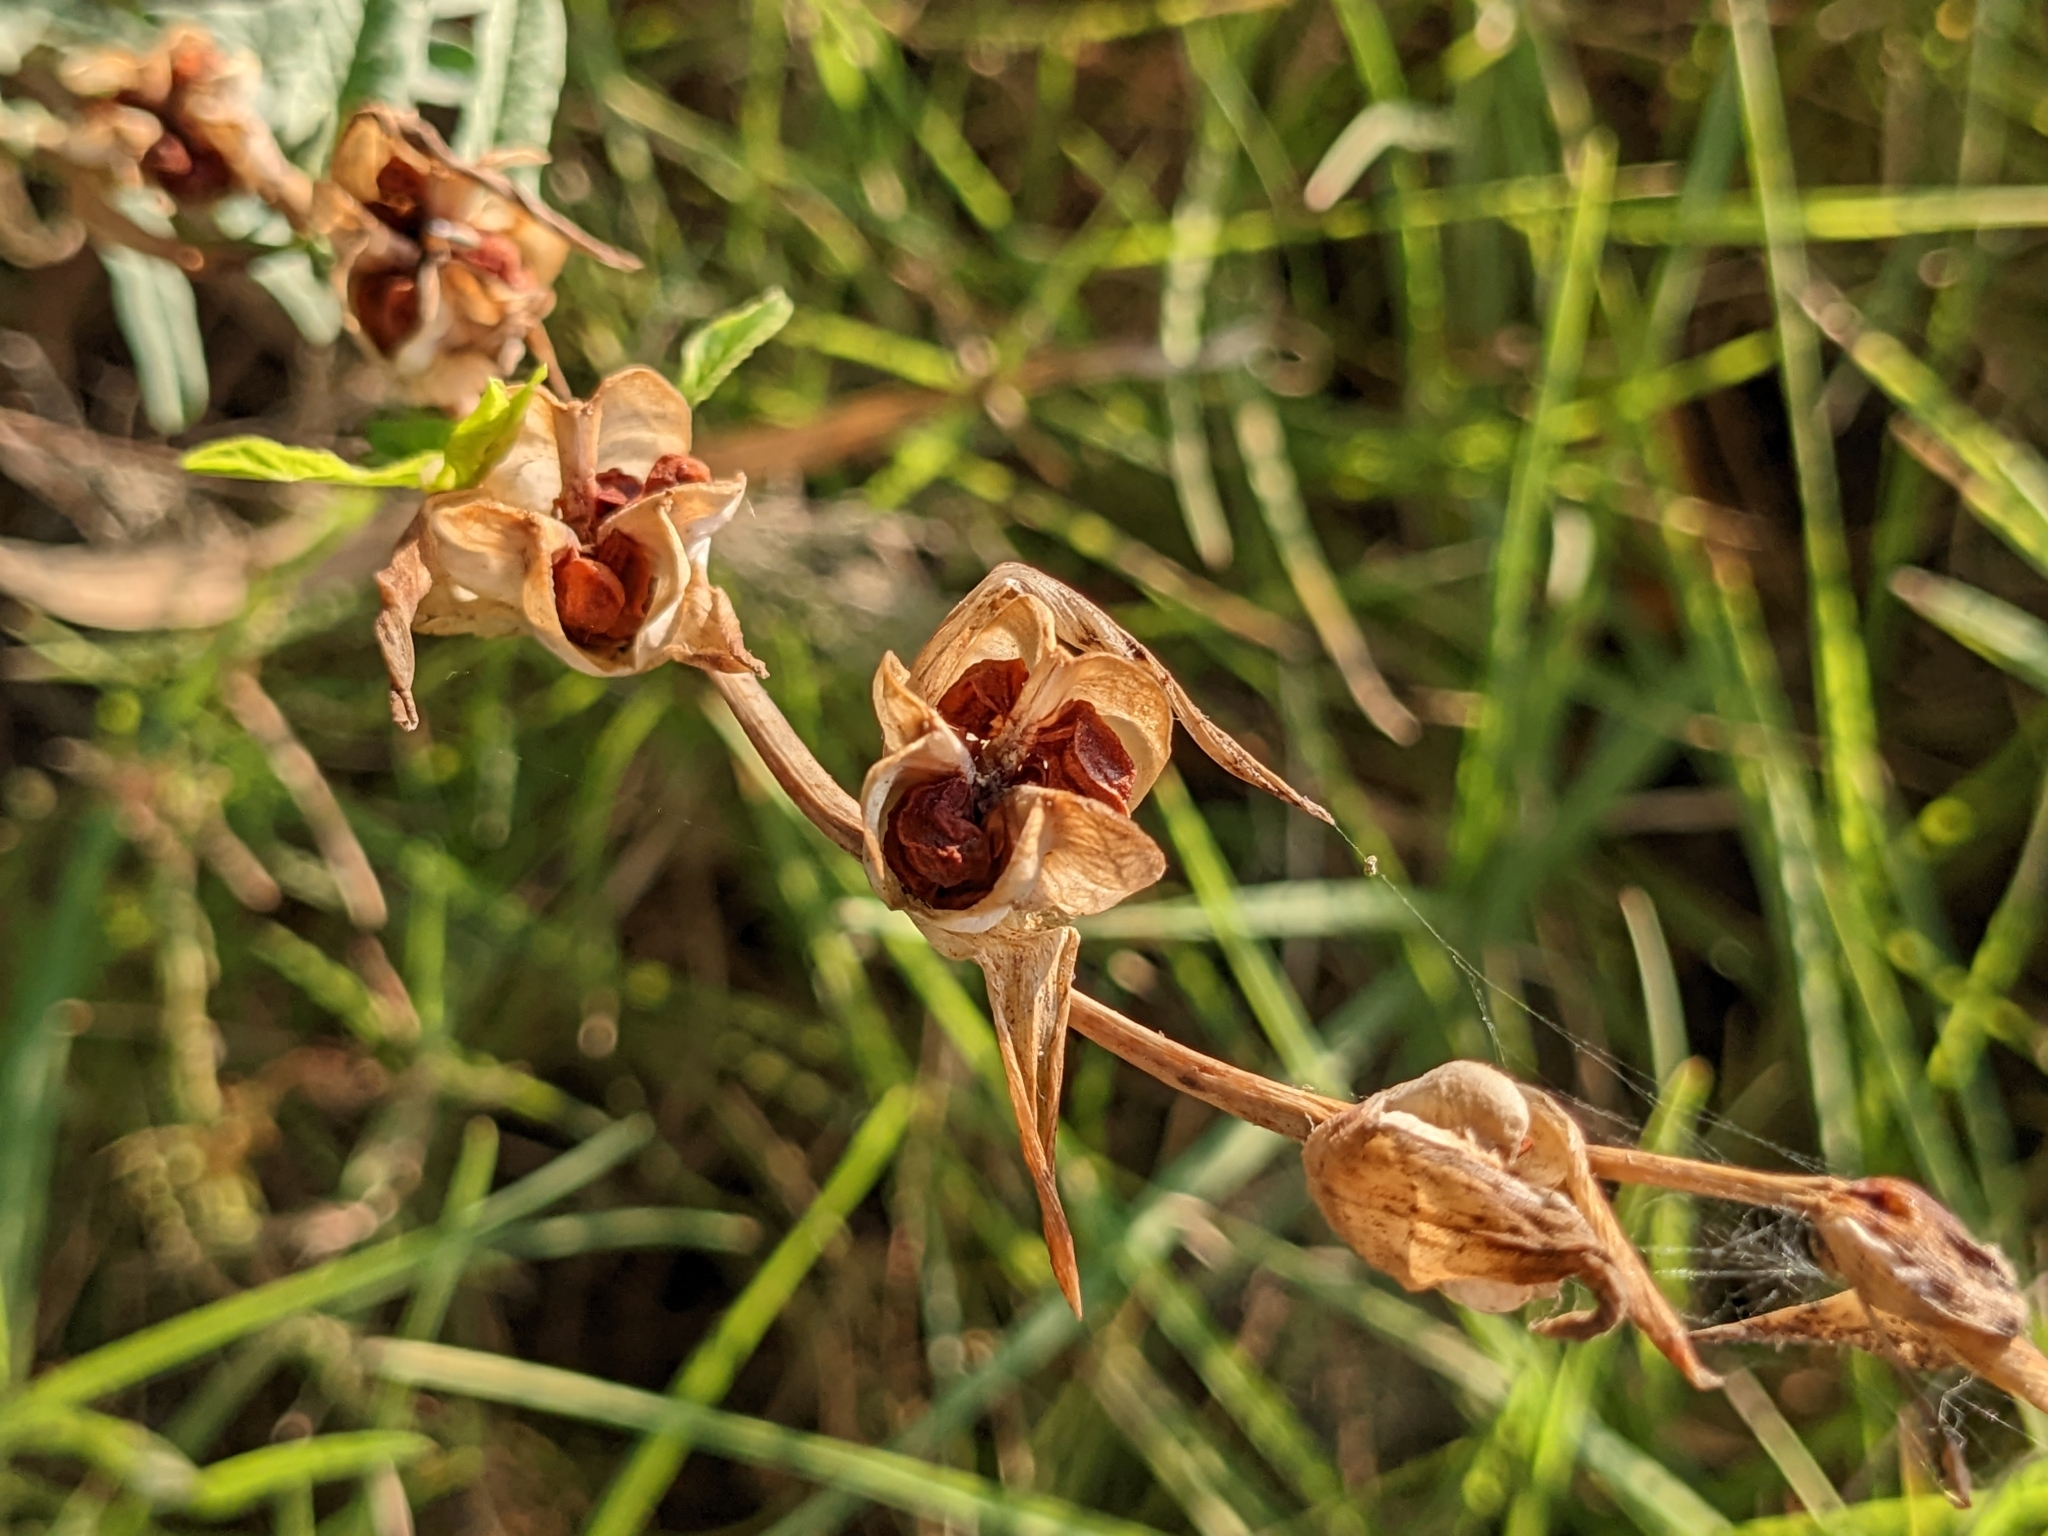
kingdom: Plantae
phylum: Tracheophyta
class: Liliopsida
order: Asparagales
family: Iridaceae
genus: Gladiolus
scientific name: Gladiolus italicus
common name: Field gladiolus
